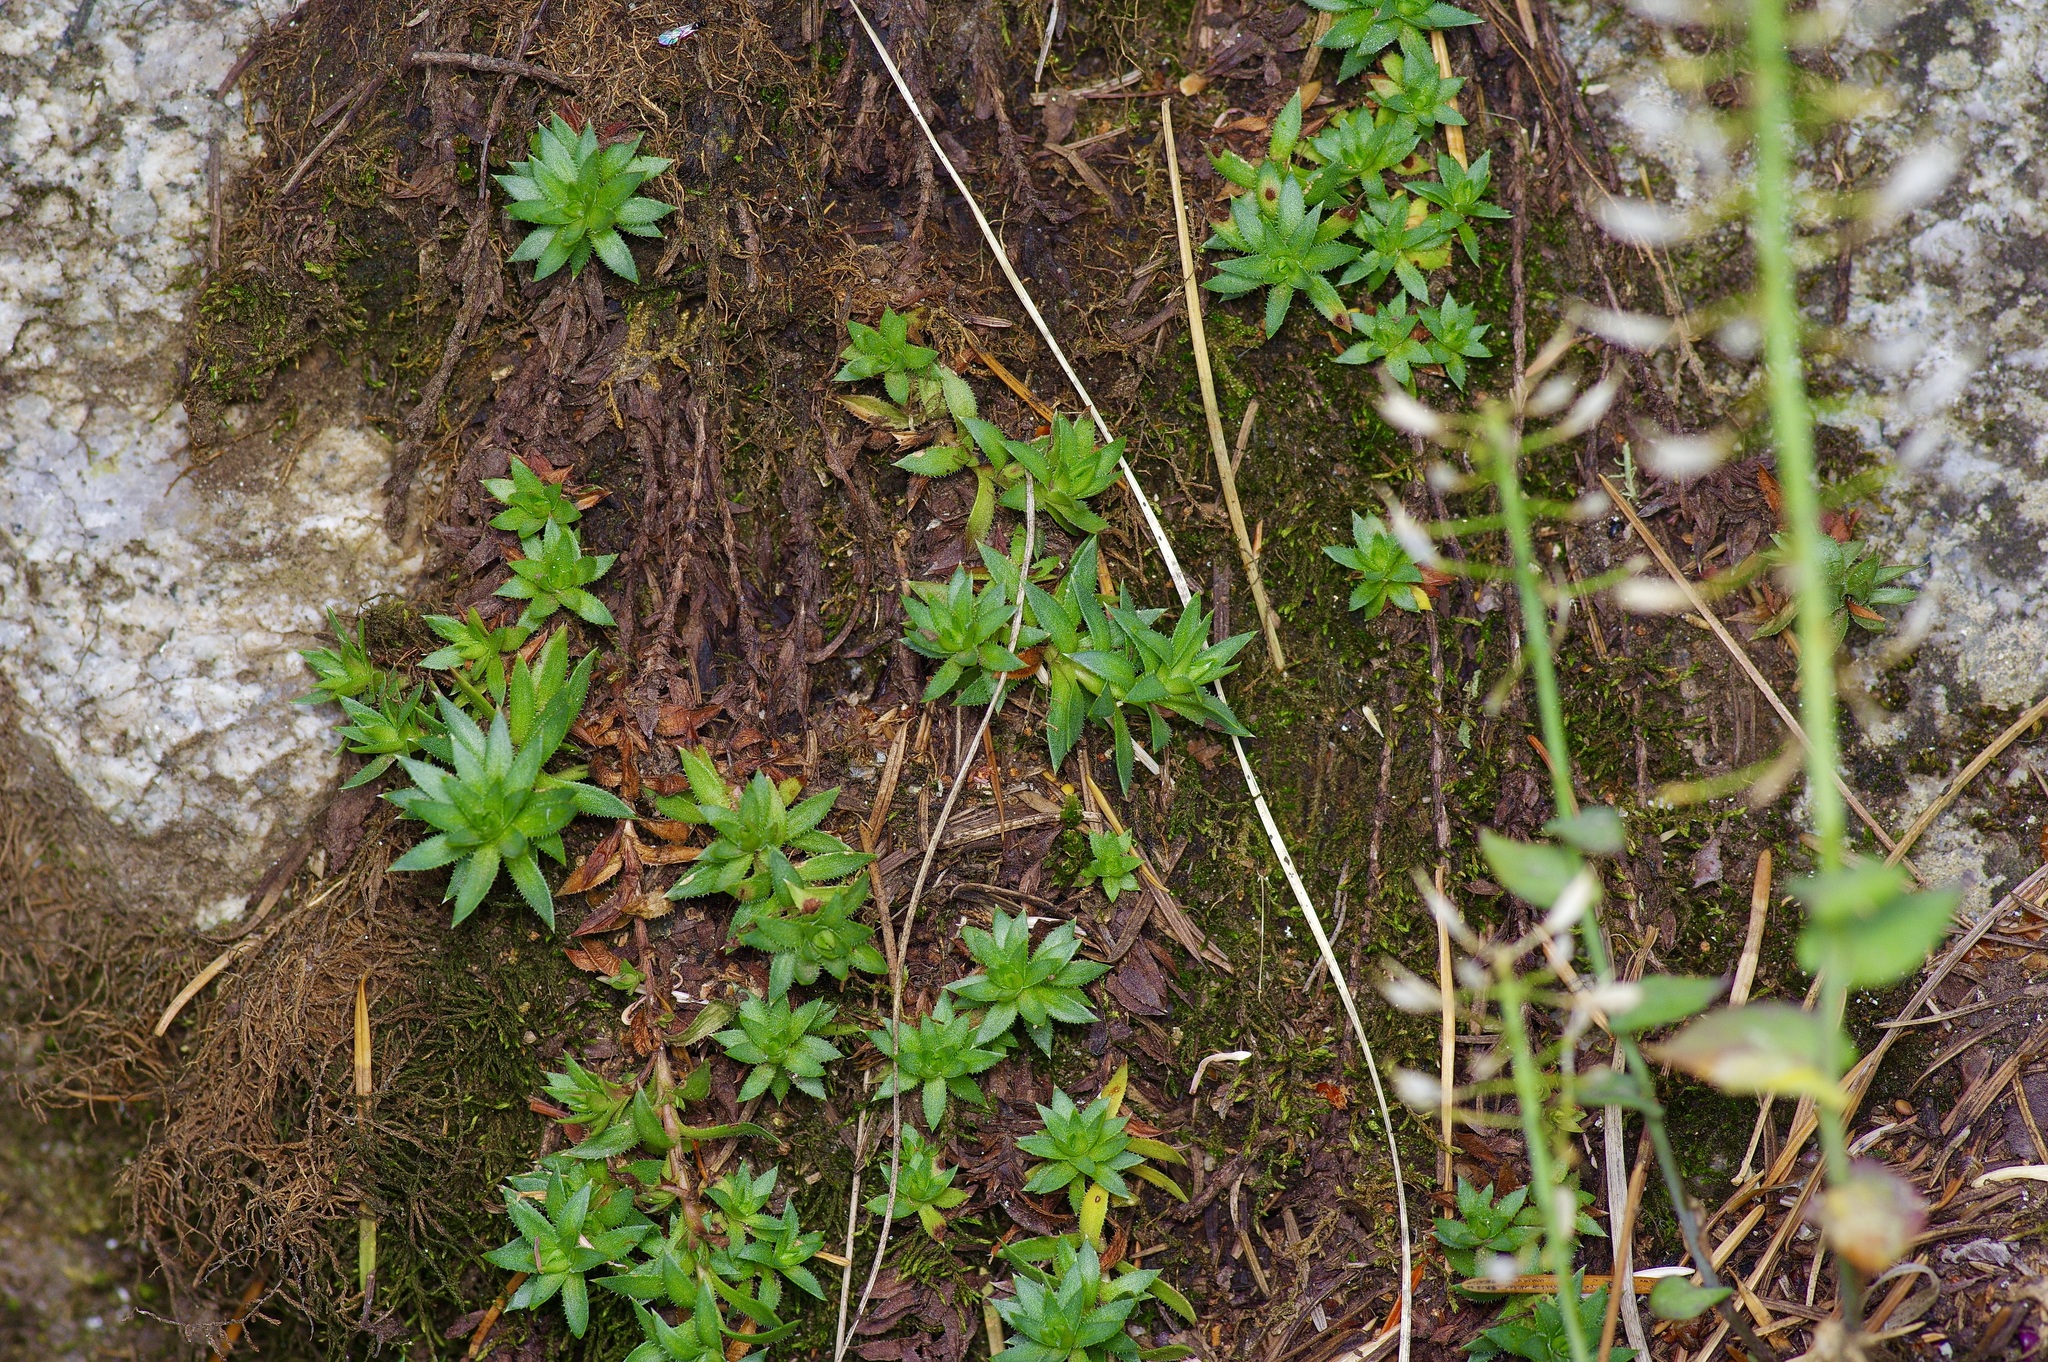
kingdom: Plantae
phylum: Tracheophyta
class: Magnoliopsida
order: Saxifragales
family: Saxifragaceae
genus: Saxifraga
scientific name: Saxifraga bronchialis
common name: Matted saxifrage
